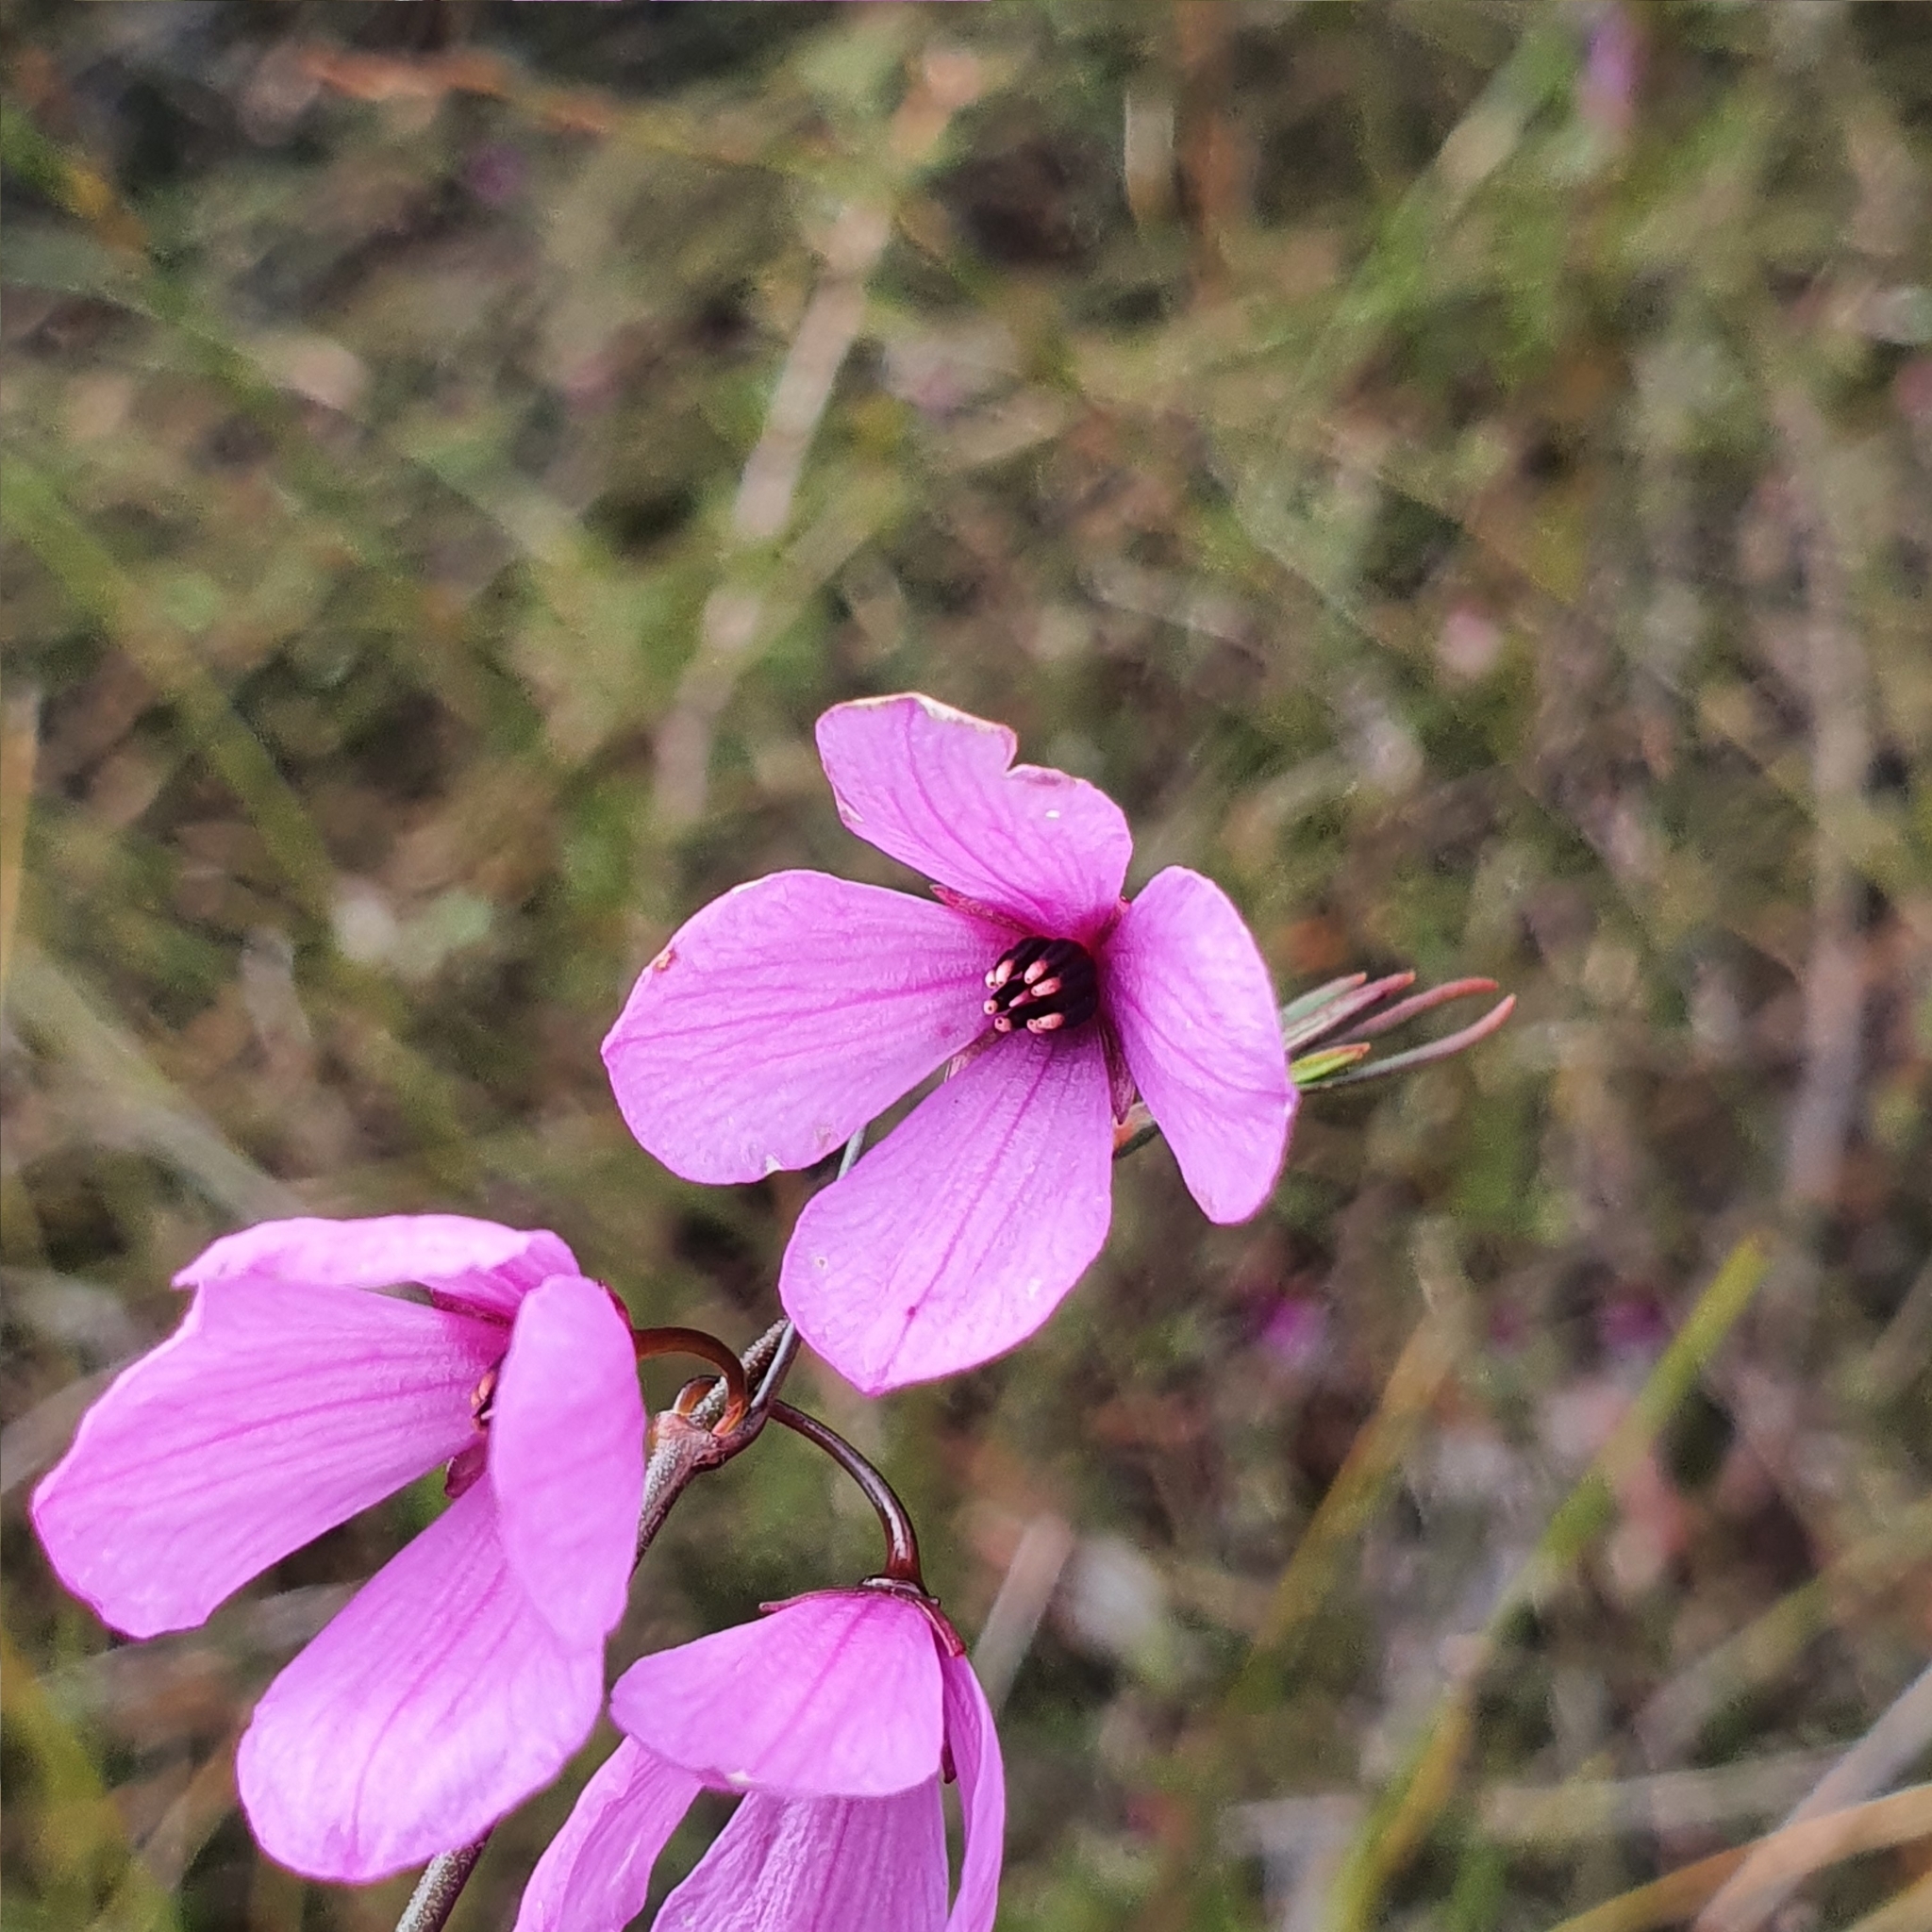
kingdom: Plantae
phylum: Tracheophyta
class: Magnoliopsida
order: Oxalidales
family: Elaeocarpaceae
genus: Tetratheca
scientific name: Tetratheca shiressii
